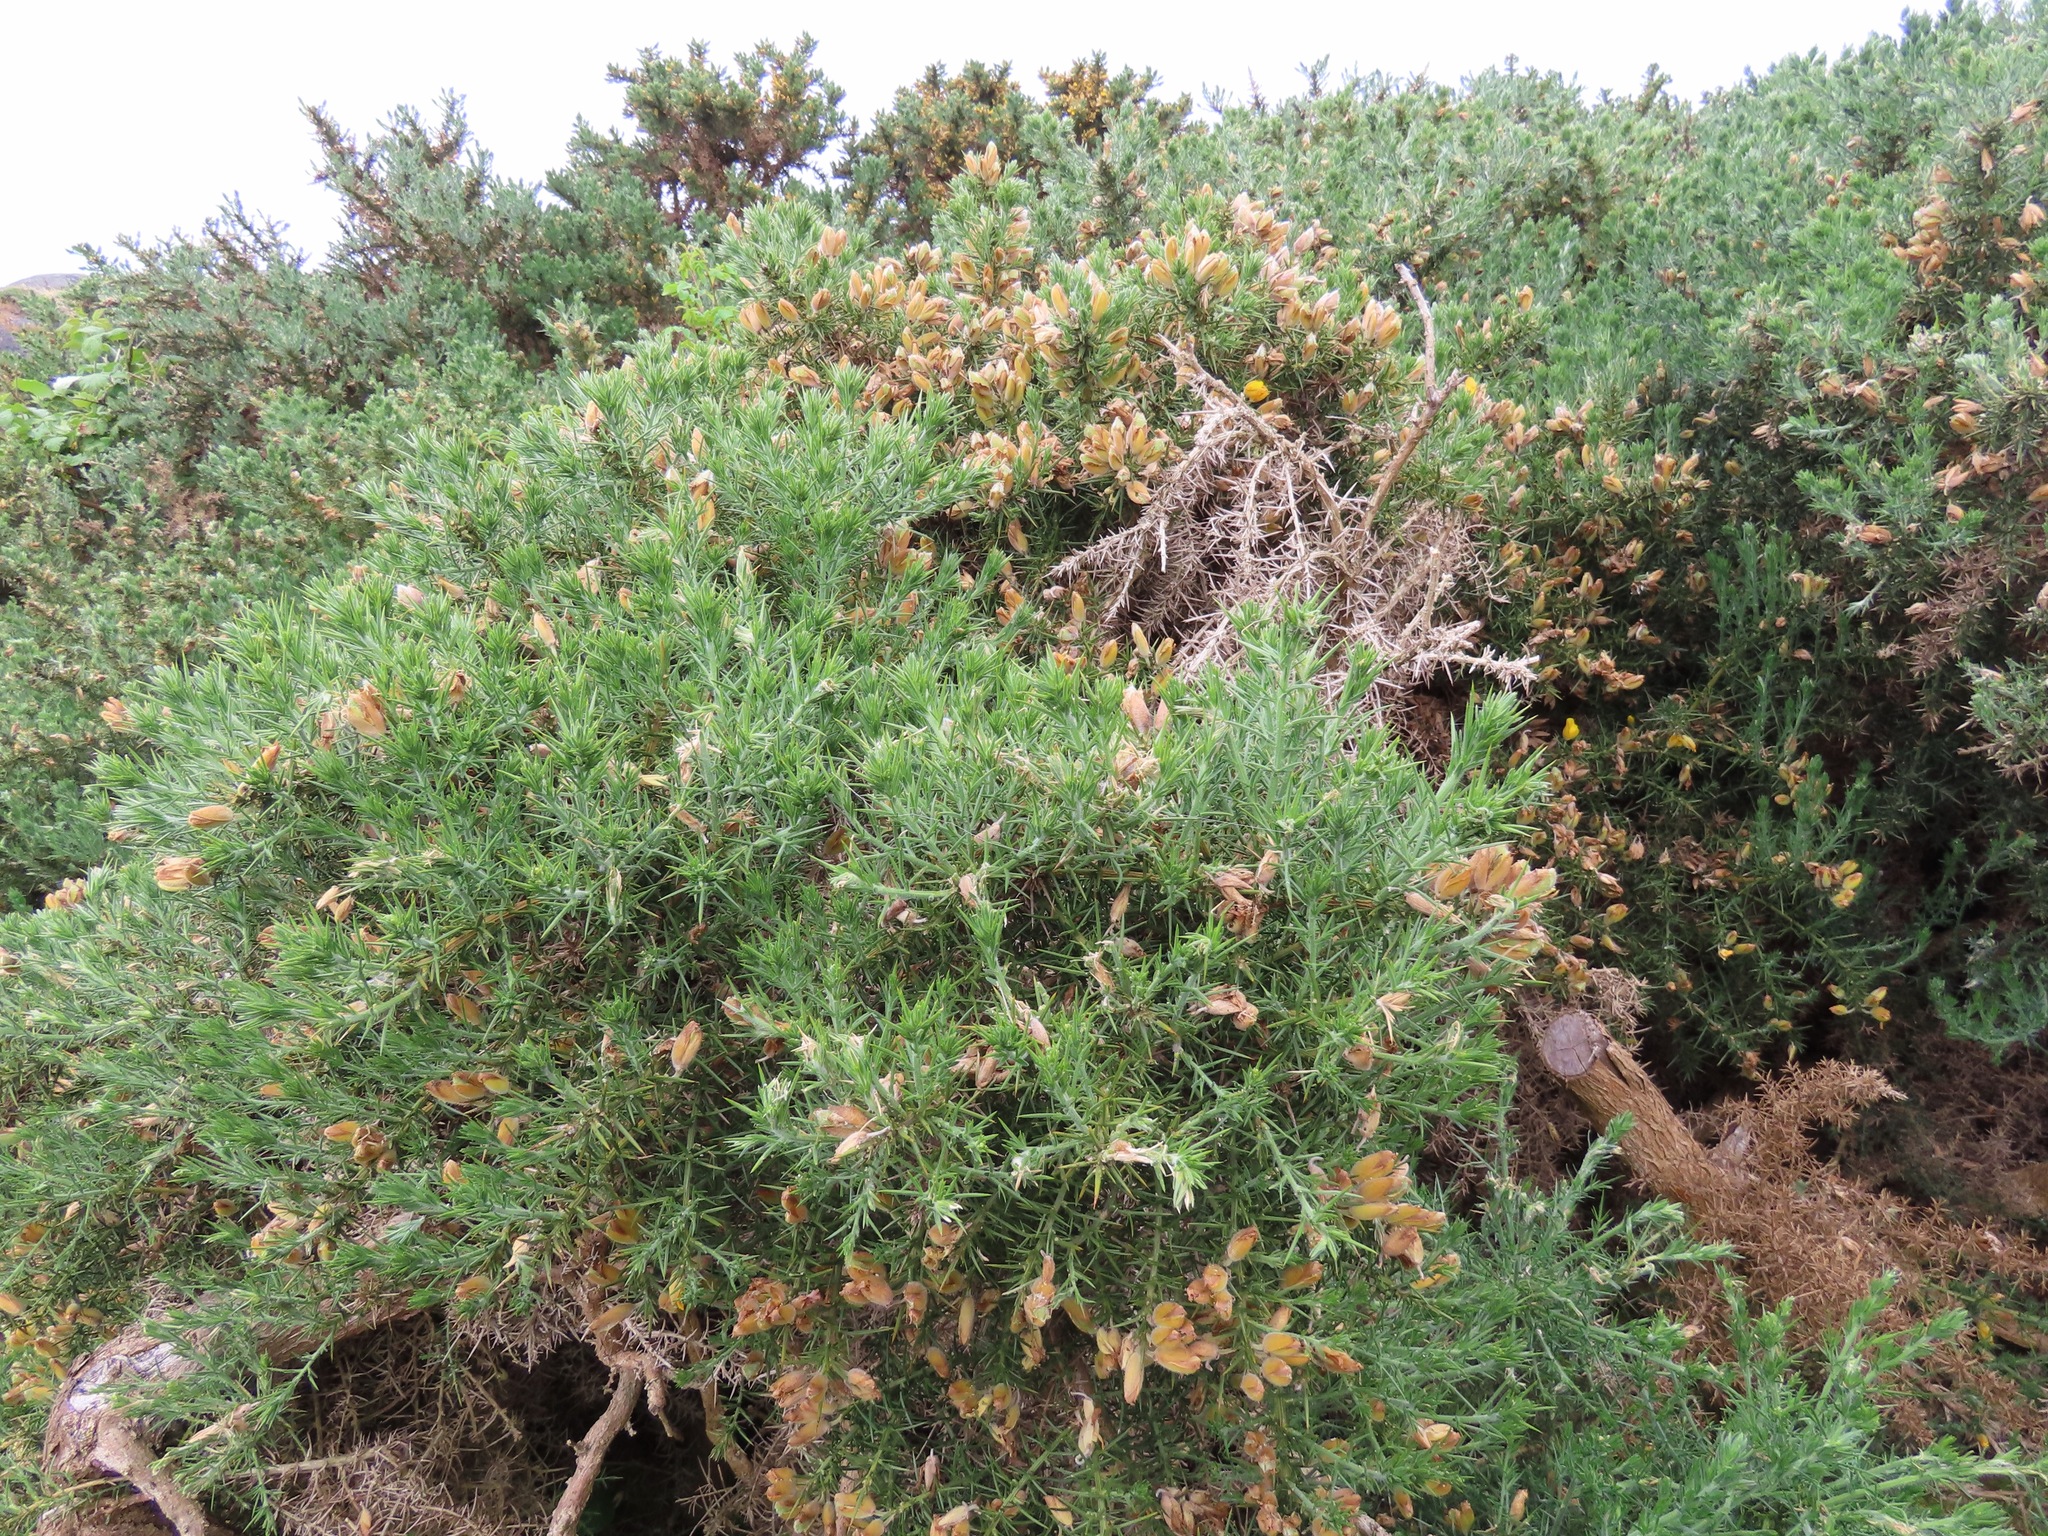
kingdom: Plantae
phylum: Tracheophyta
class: Magnoliopsida
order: Fabales
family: Fabaceae
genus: Ulex
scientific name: Ulex europaeus
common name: Common gorse
